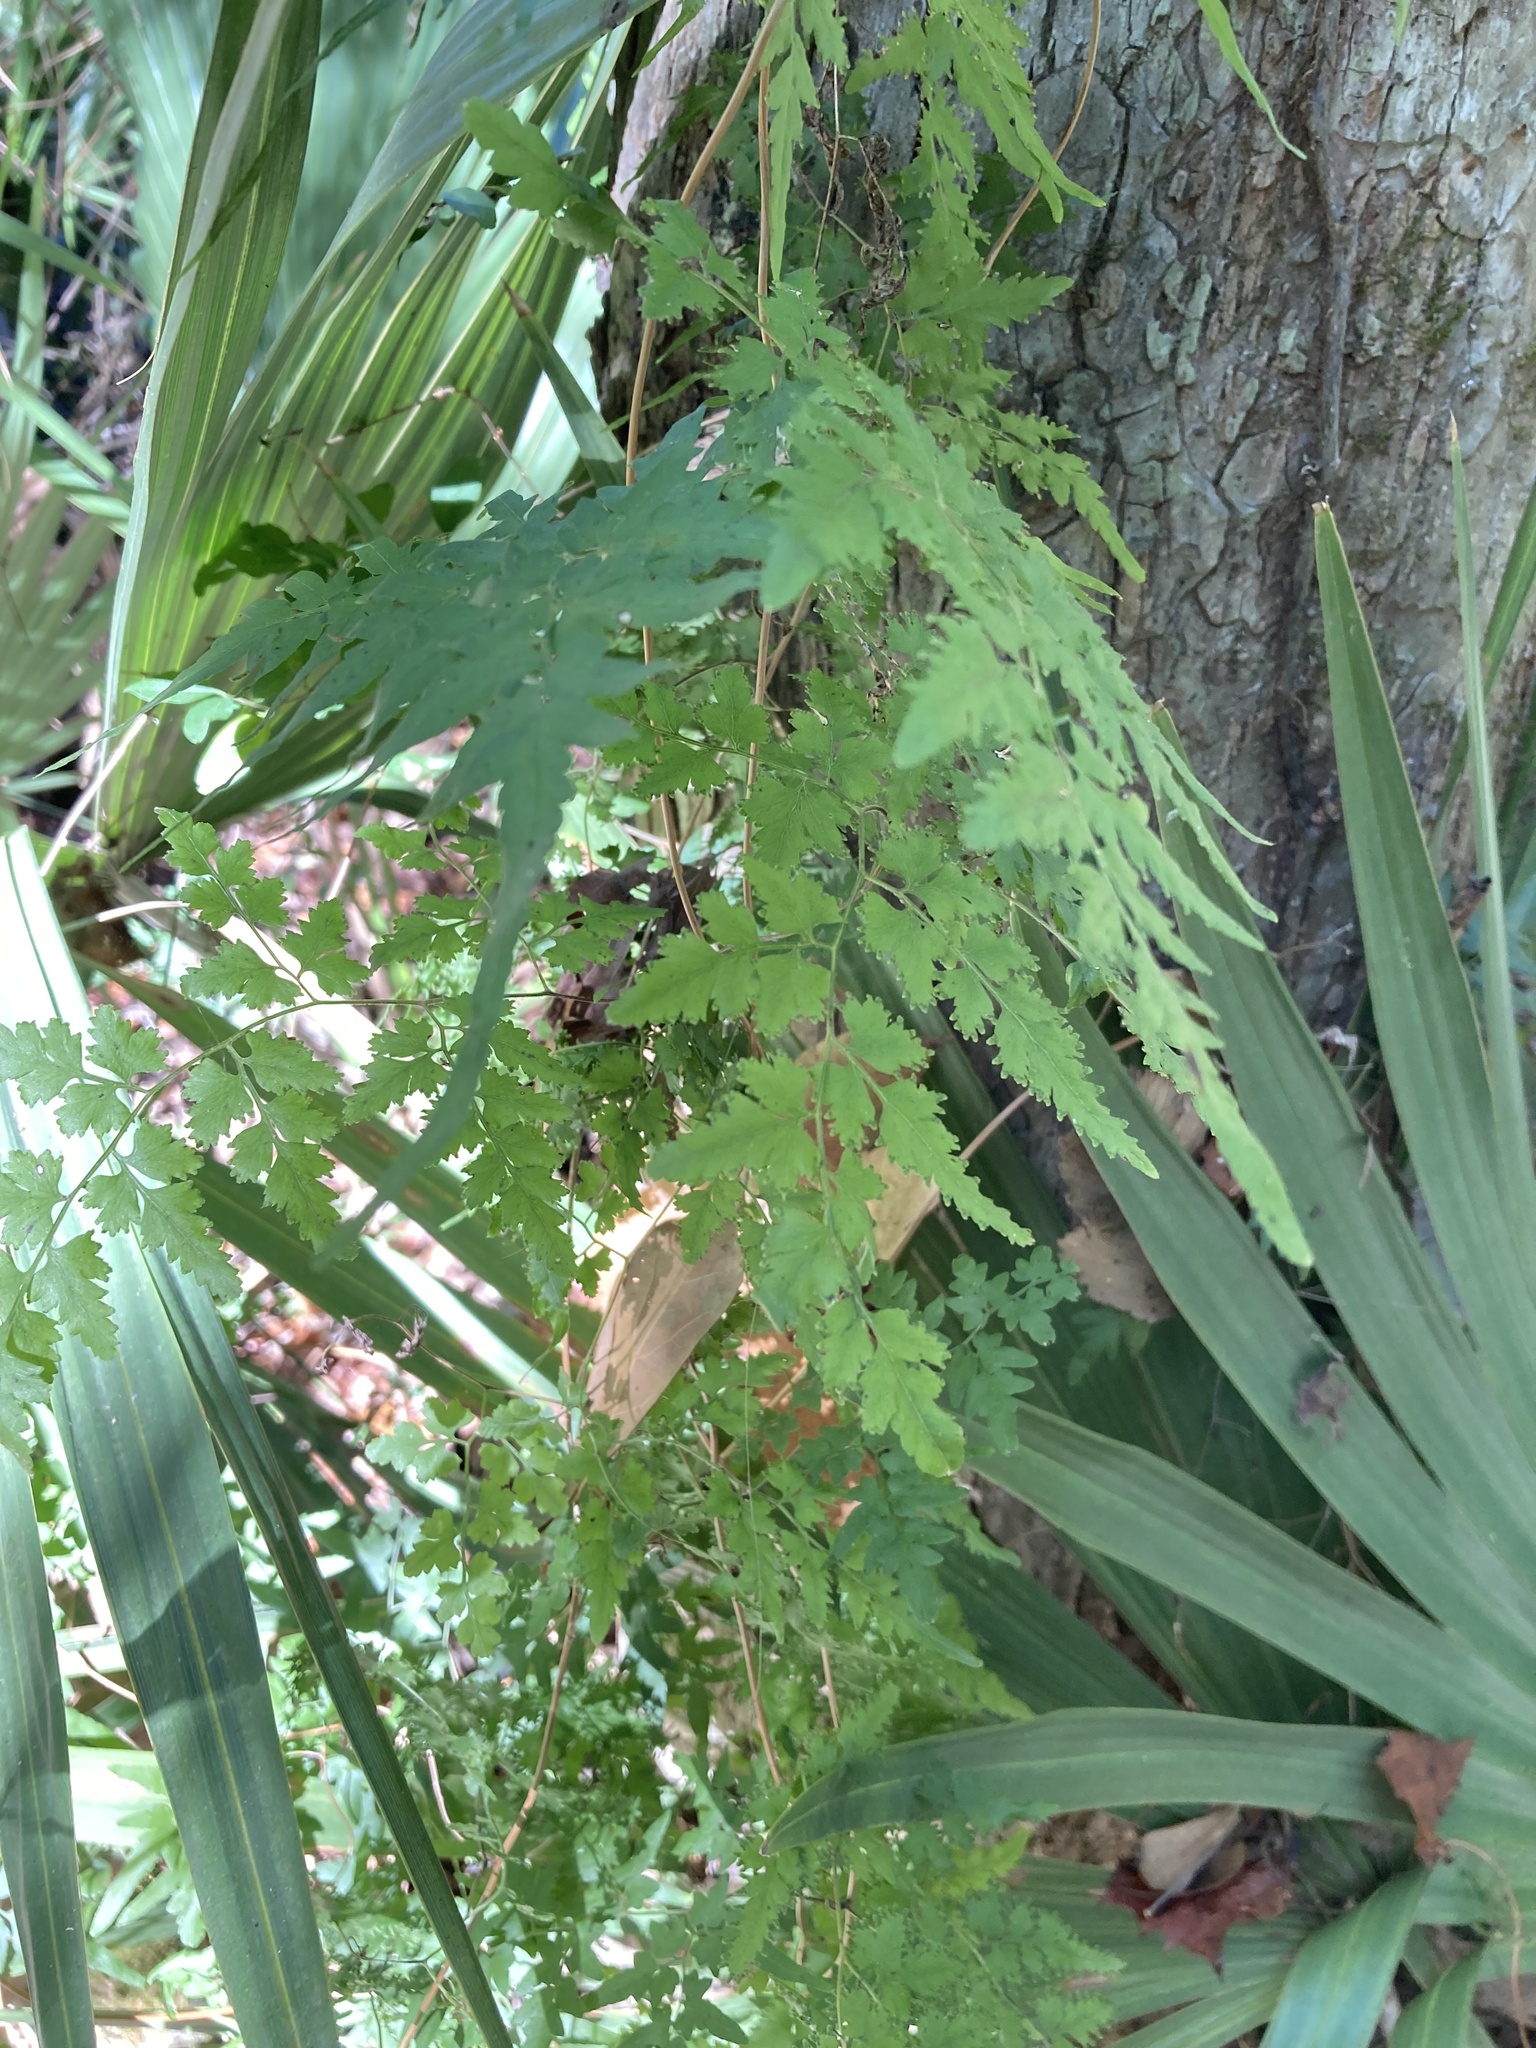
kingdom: Plantae
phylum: Tracheophyta
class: Polypodiopsida
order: Schizaeales
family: Lygodiaceae
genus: Lygodium
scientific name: Lygodium japonicum
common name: Japanese climbing fern
